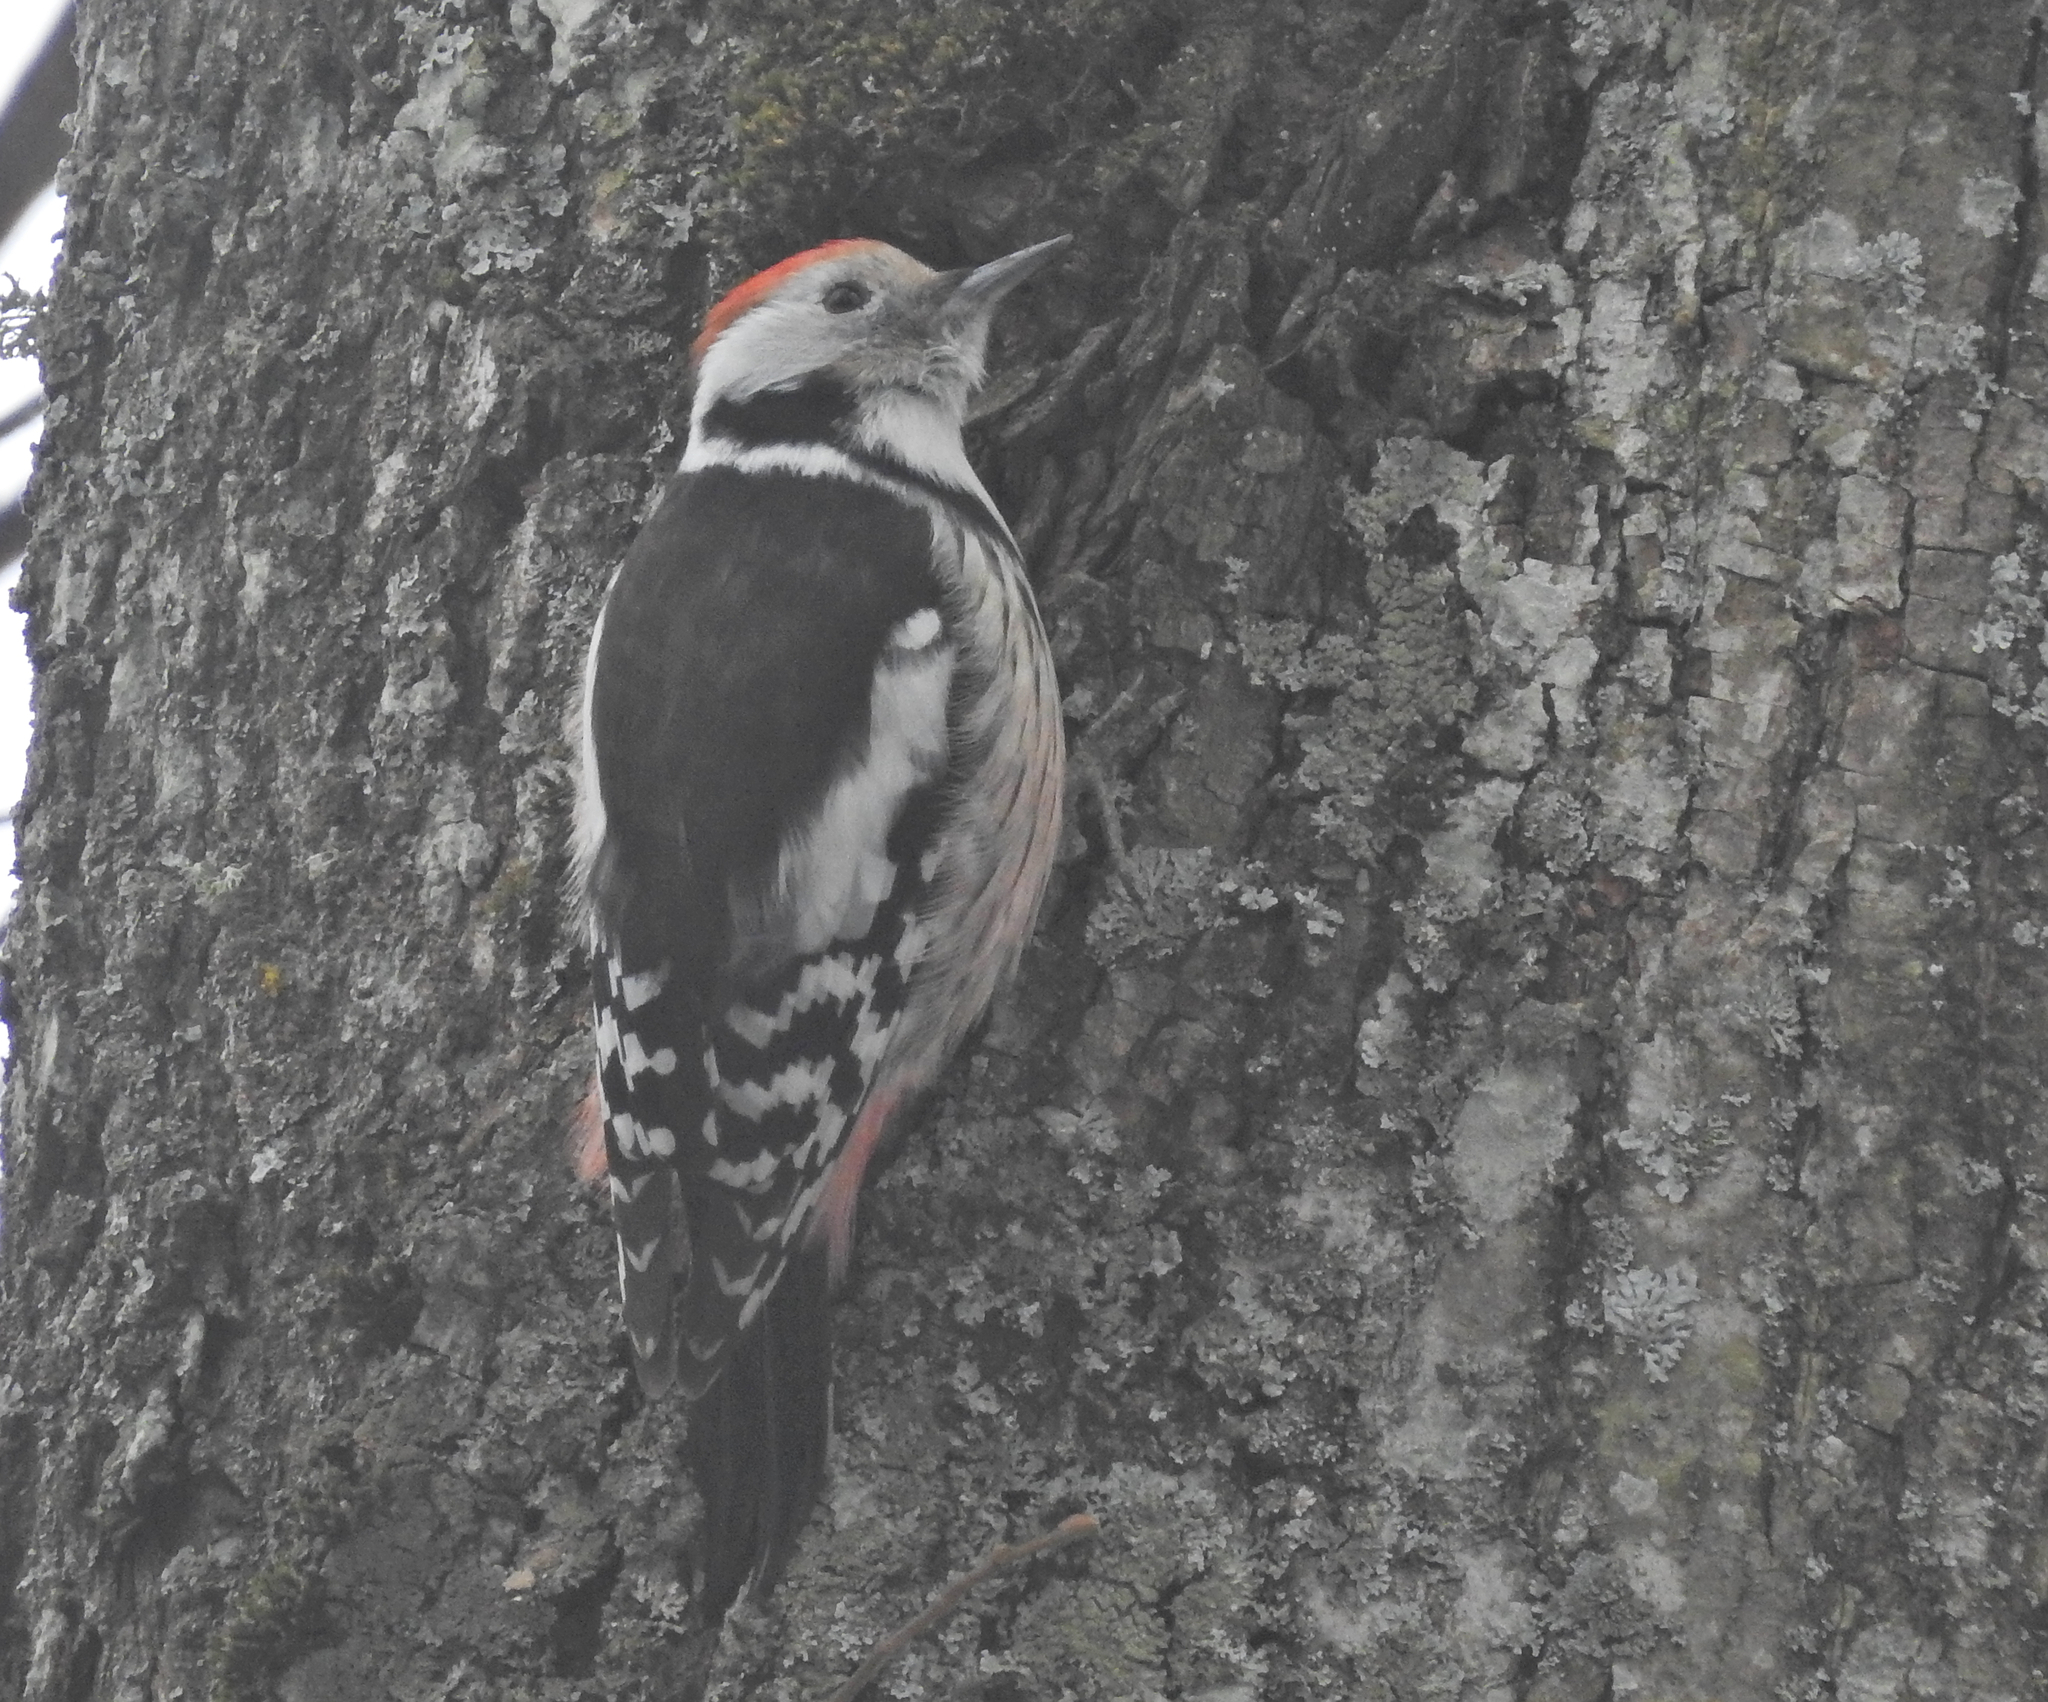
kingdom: Animalia
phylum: Chordata
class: Aves
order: Piciformes
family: Picidae
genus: Dendrocoptes
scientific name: Dendrocoptes medius
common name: Middle spotted woodpecker
